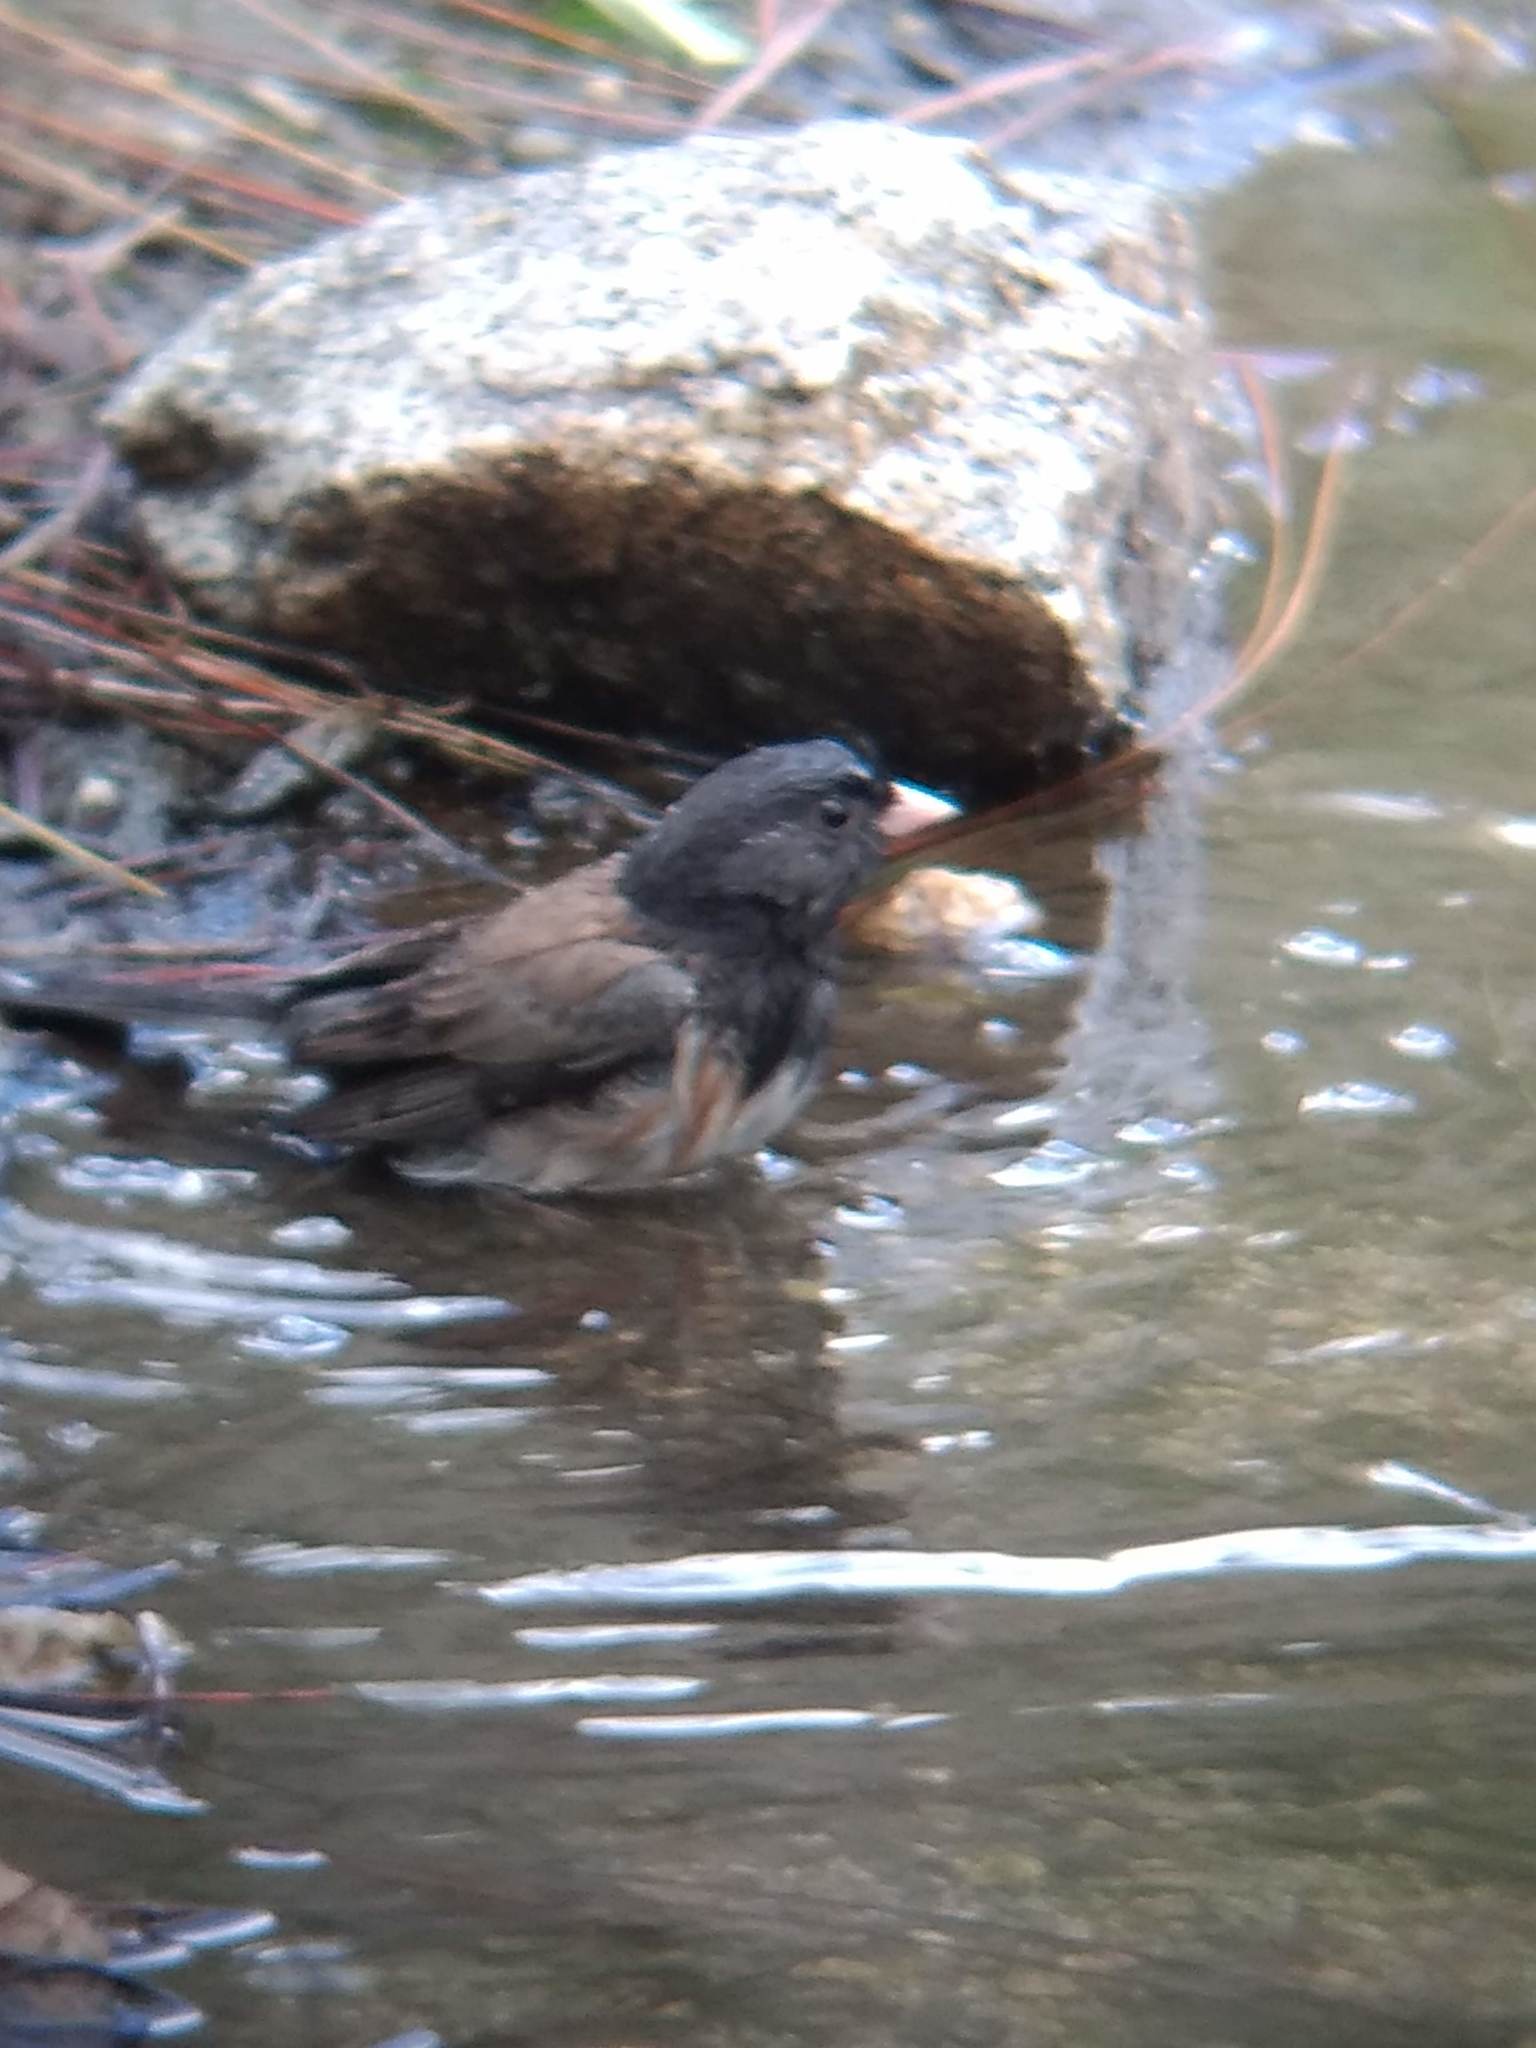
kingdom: Animalia
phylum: Chordata
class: Aves
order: Passeriformes
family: Passerellidae
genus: Junco
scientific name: Junco hyemalis
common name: Dark-eyed junco
